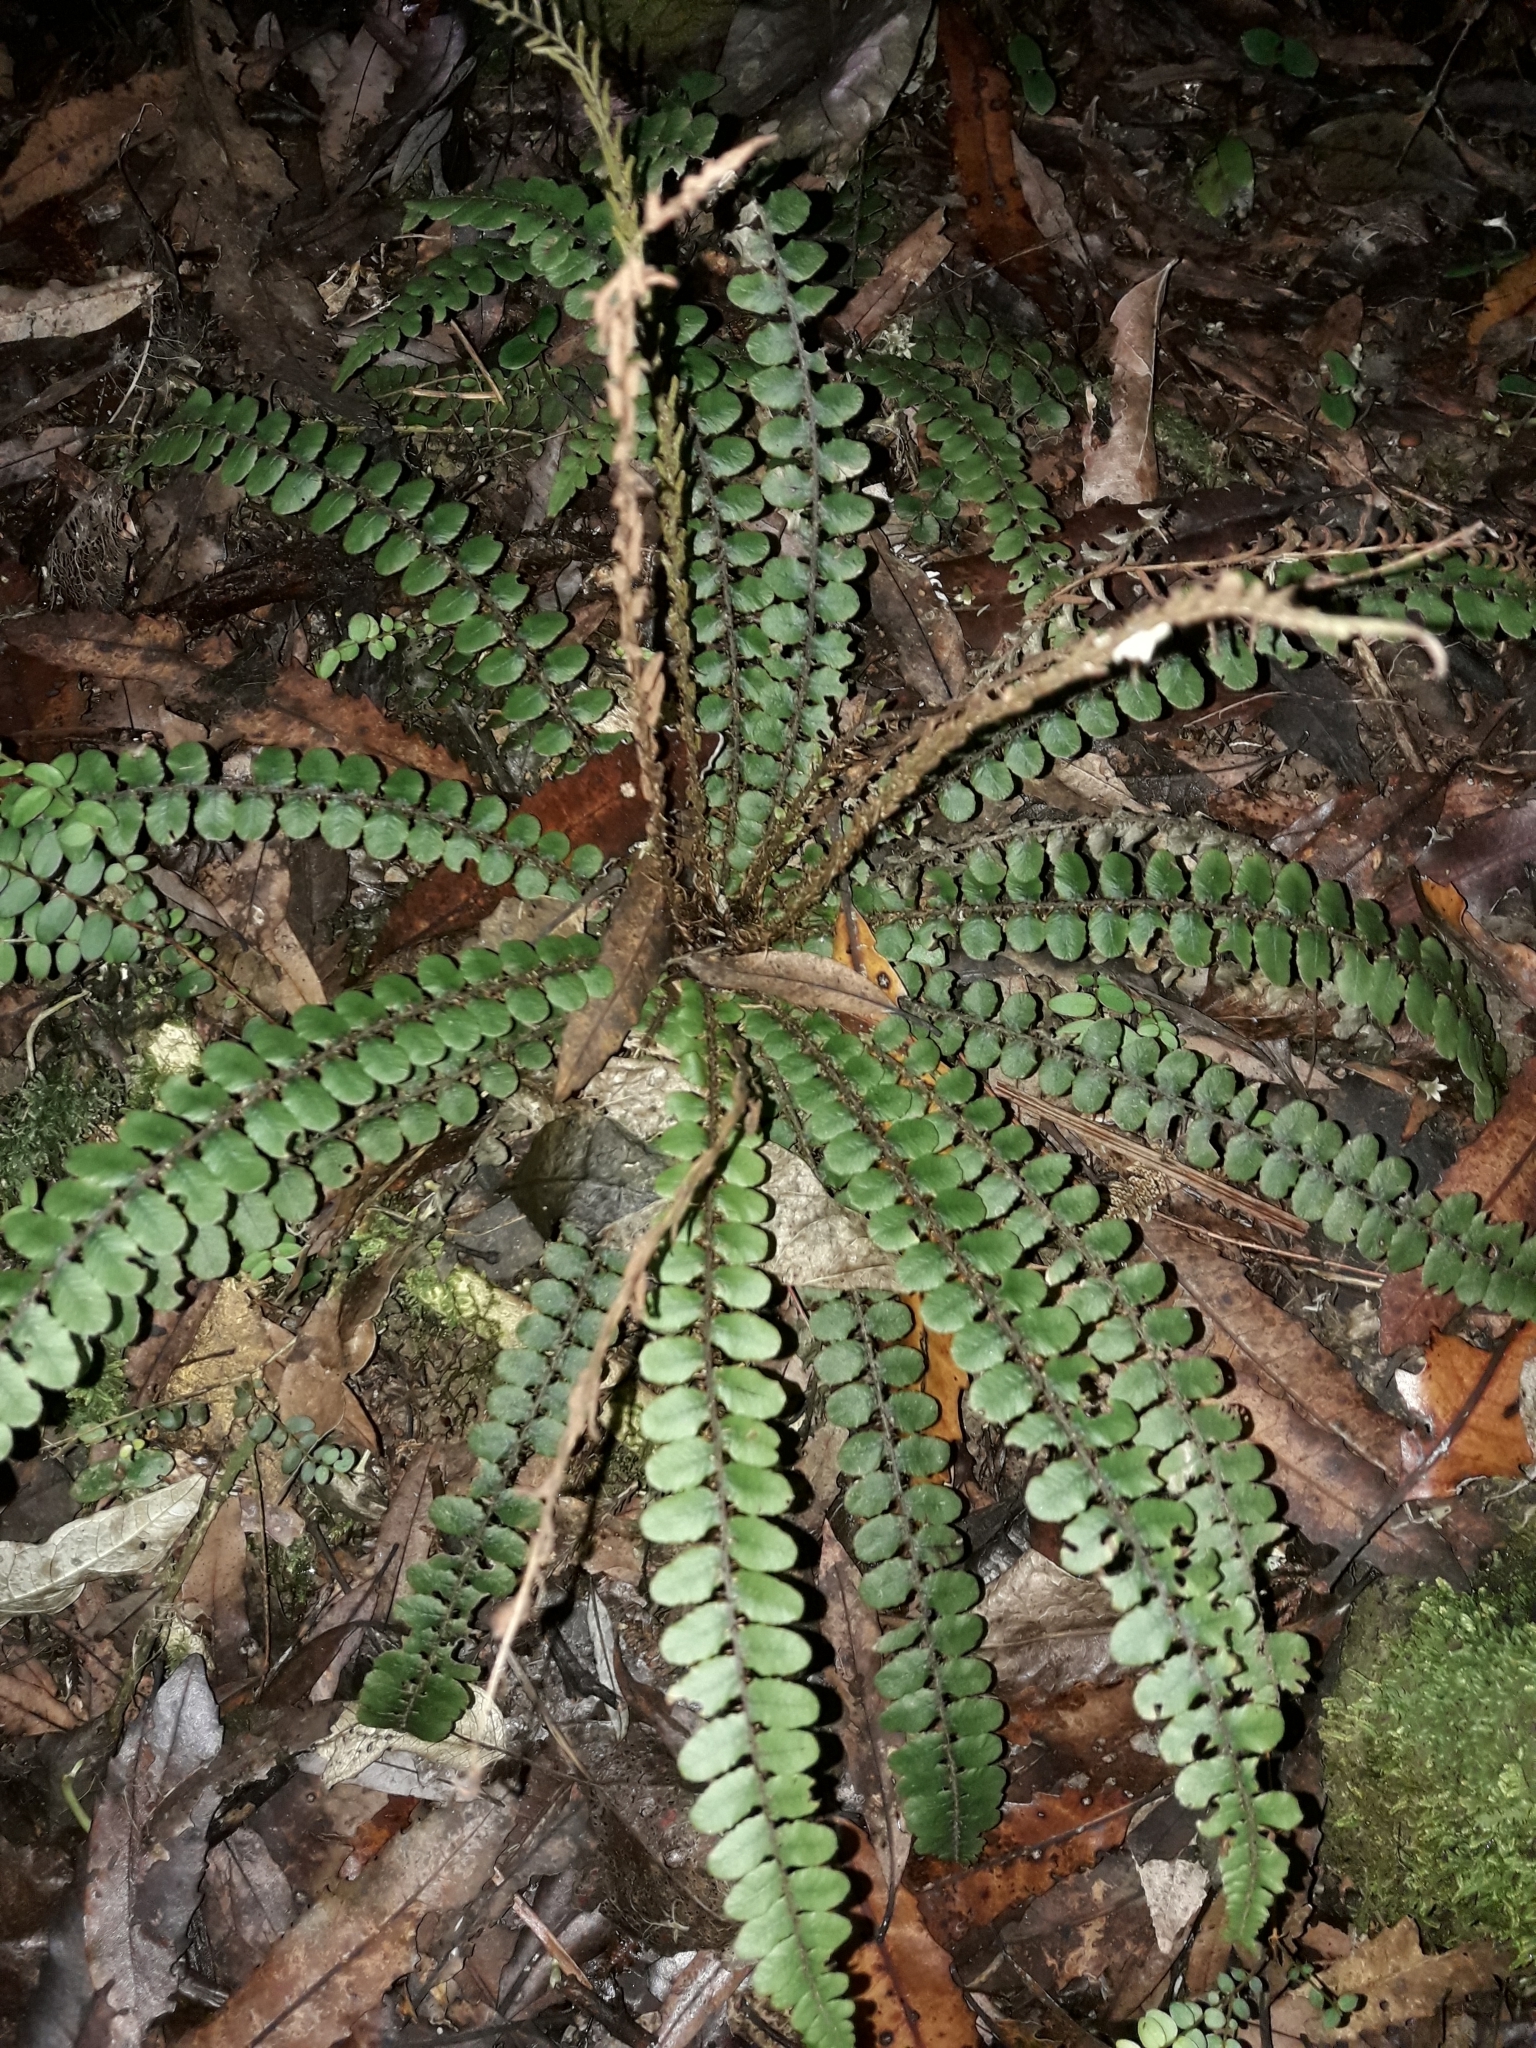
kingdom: Plantae
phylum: Tracheophyta
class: Polypodiopsida
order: Polypodiales
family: Blechnaceae
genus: Cranfillia
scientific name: Cranfillia fluviatilis
